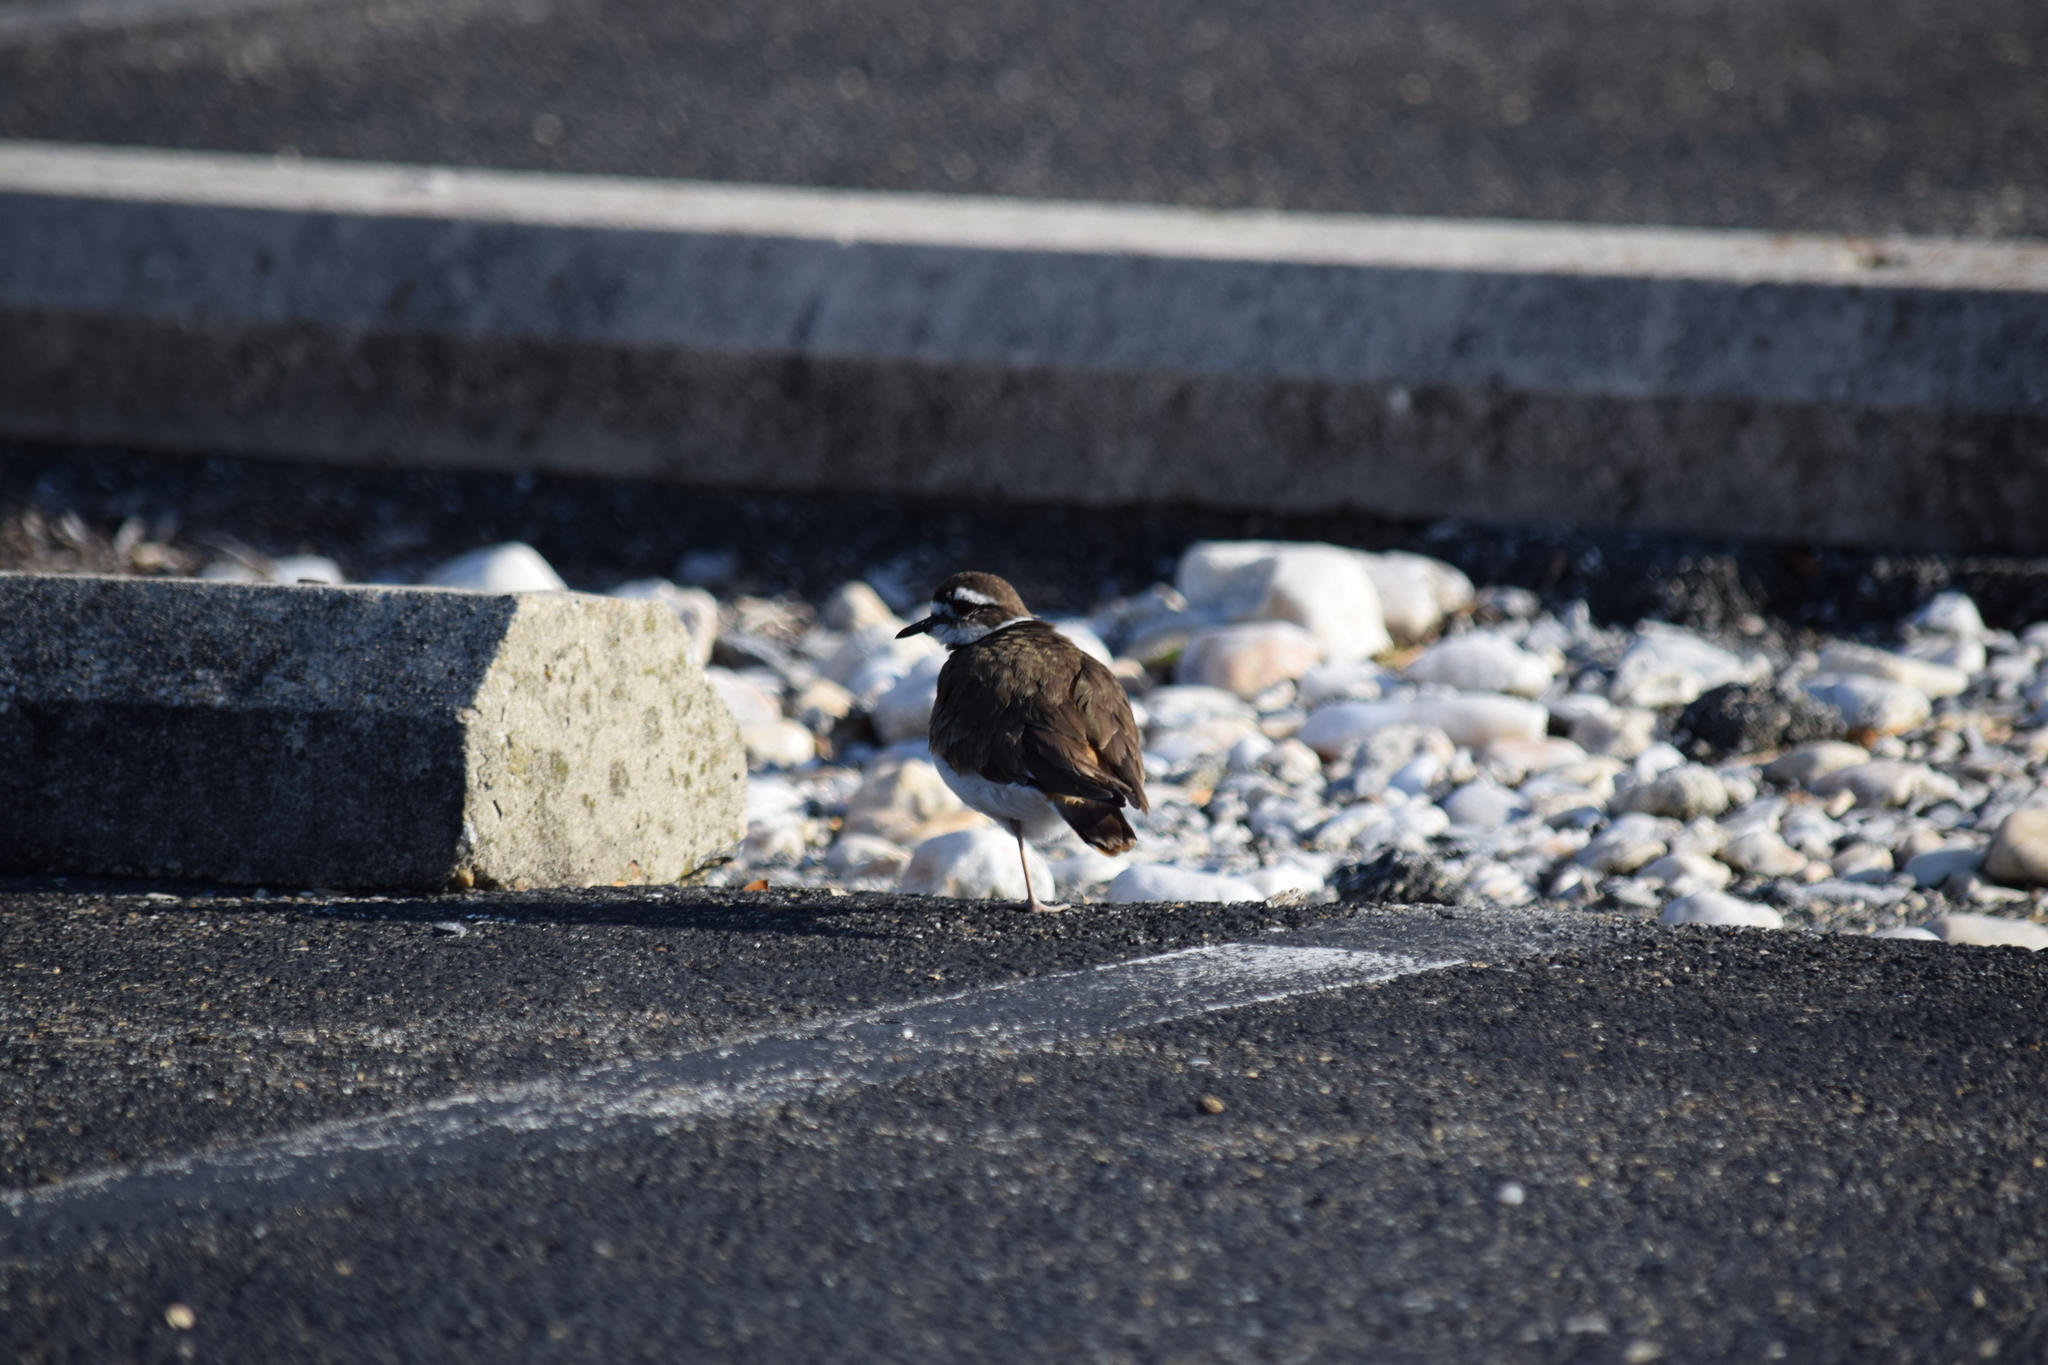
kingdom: Animalia
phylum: Chordata
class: Aves
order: Charadriiformes
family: Charadriidae
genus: Charadrius
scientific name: Charadrius vociferus
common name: Killdeer
